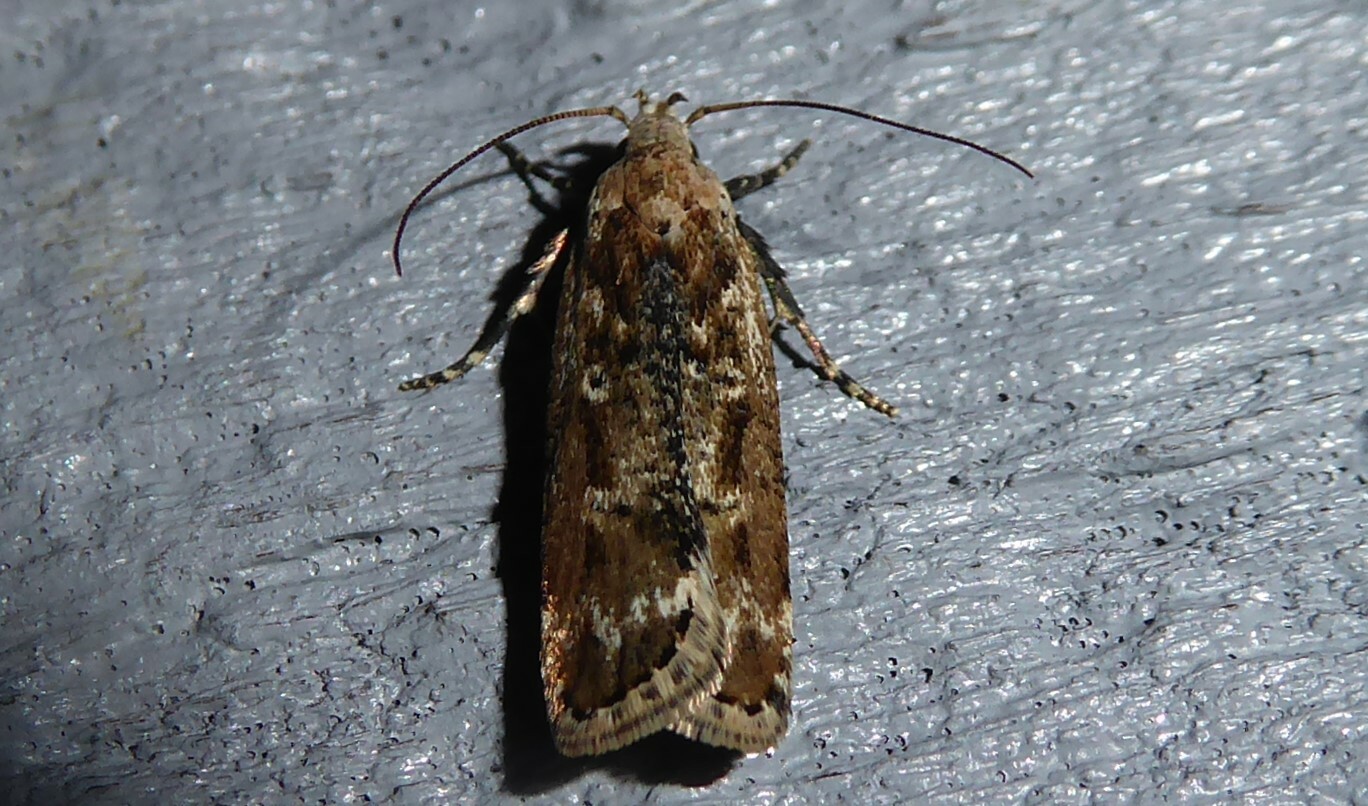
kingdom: Animalia
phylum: Arthropoda
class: Insecta
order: Lepidoptera
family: Gelechiidae
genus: Anisoplaca
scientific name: Anisoplaca achyrota
